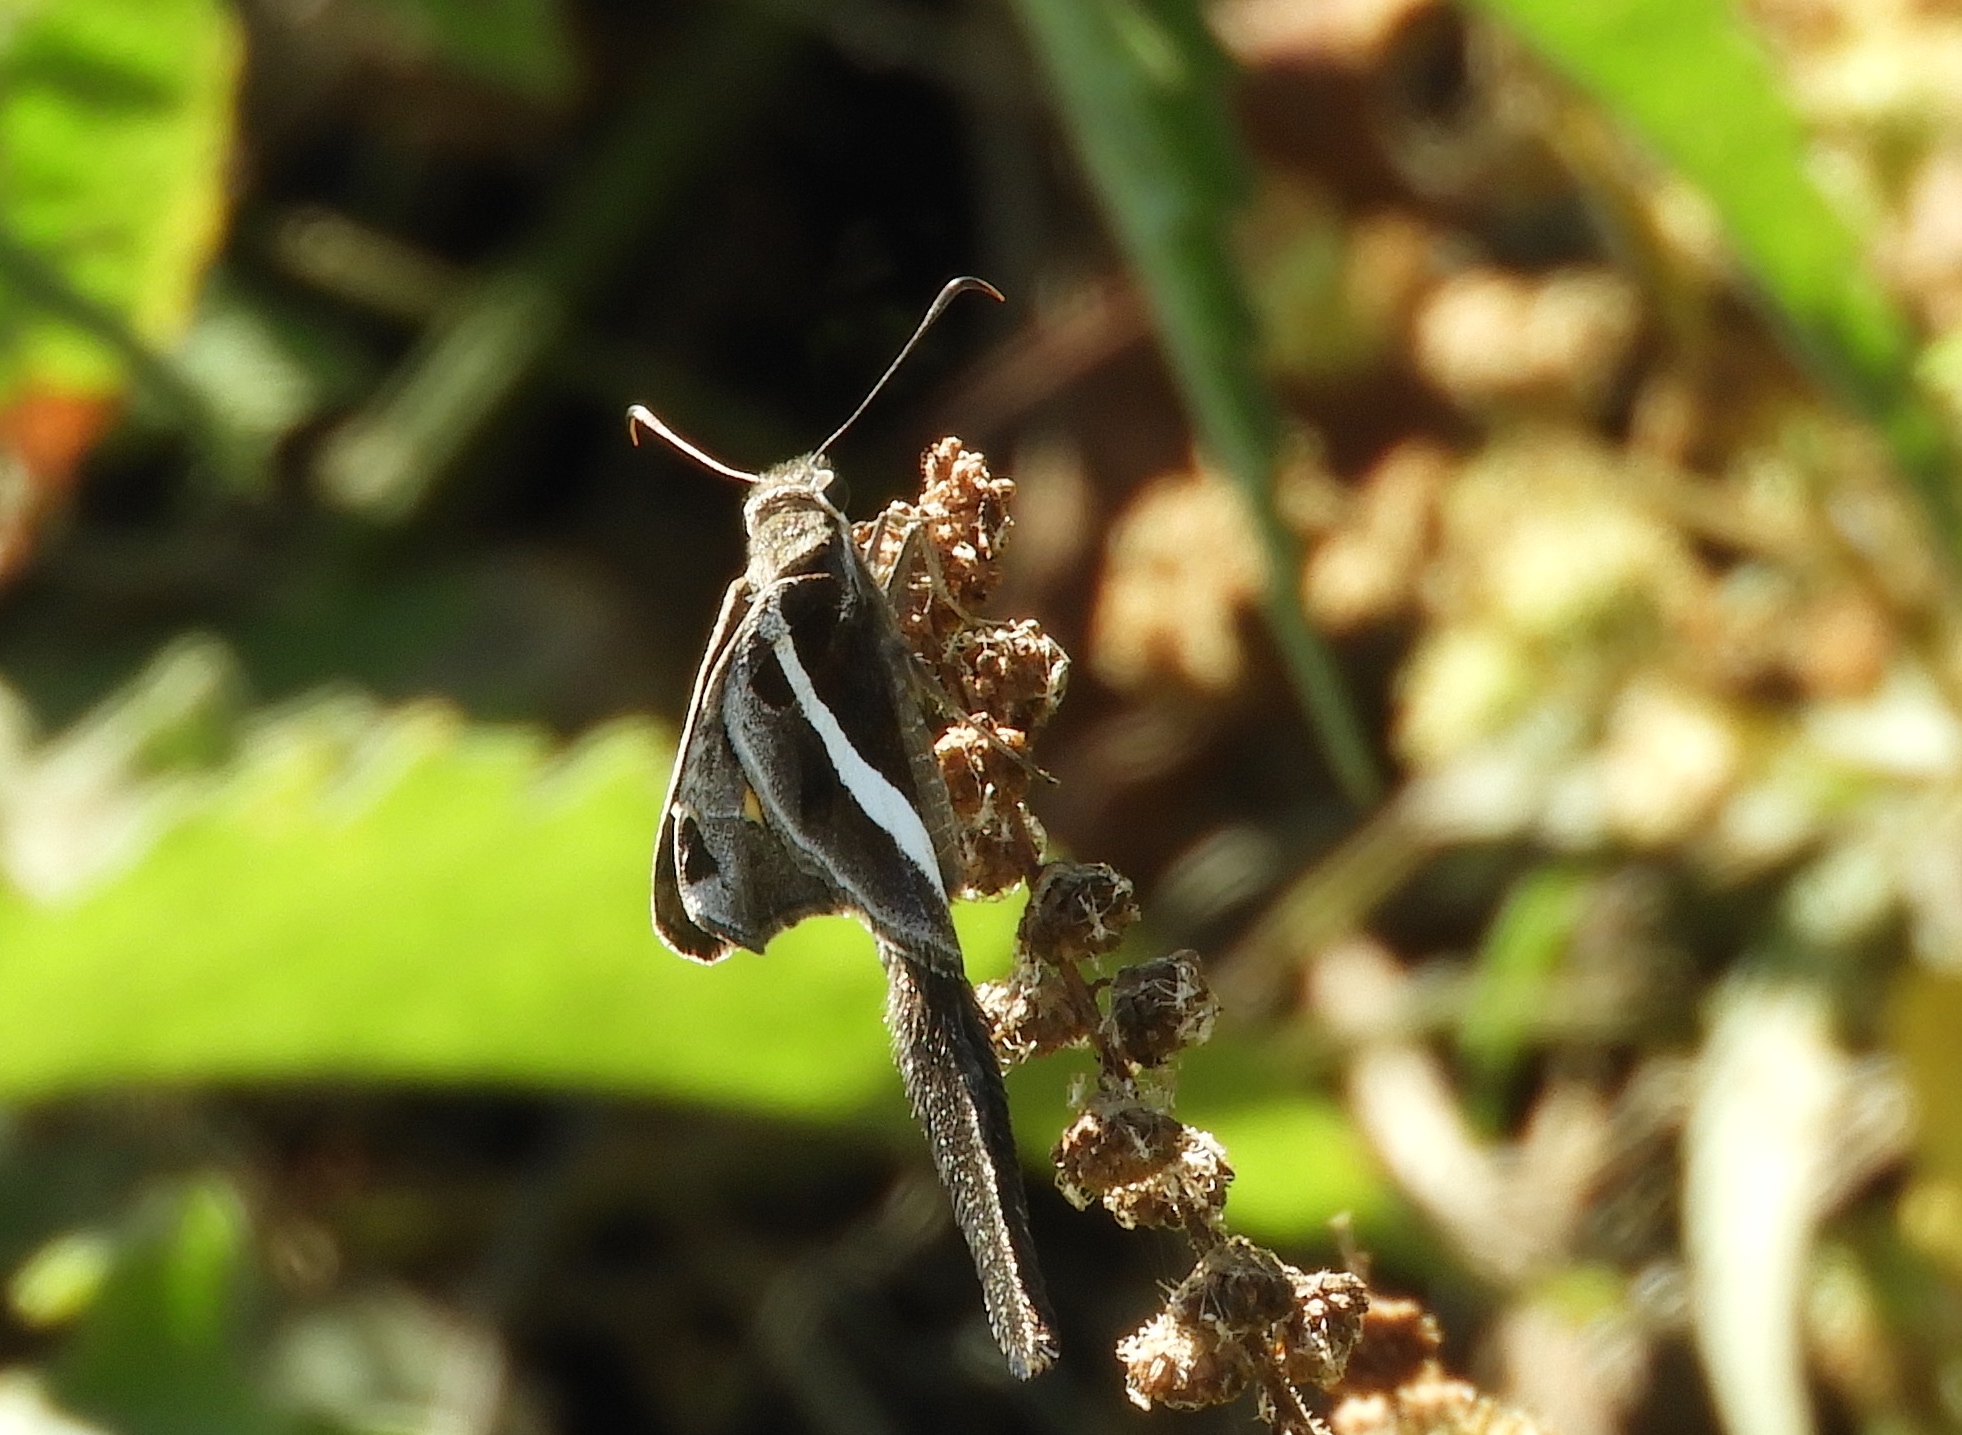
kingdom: Animalia
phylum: Arthropoda
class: Insecta
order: Lepidoptera
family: Hesperiidae
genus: Chioides
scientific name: Chioides catillus
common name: Silverbanded skipper
